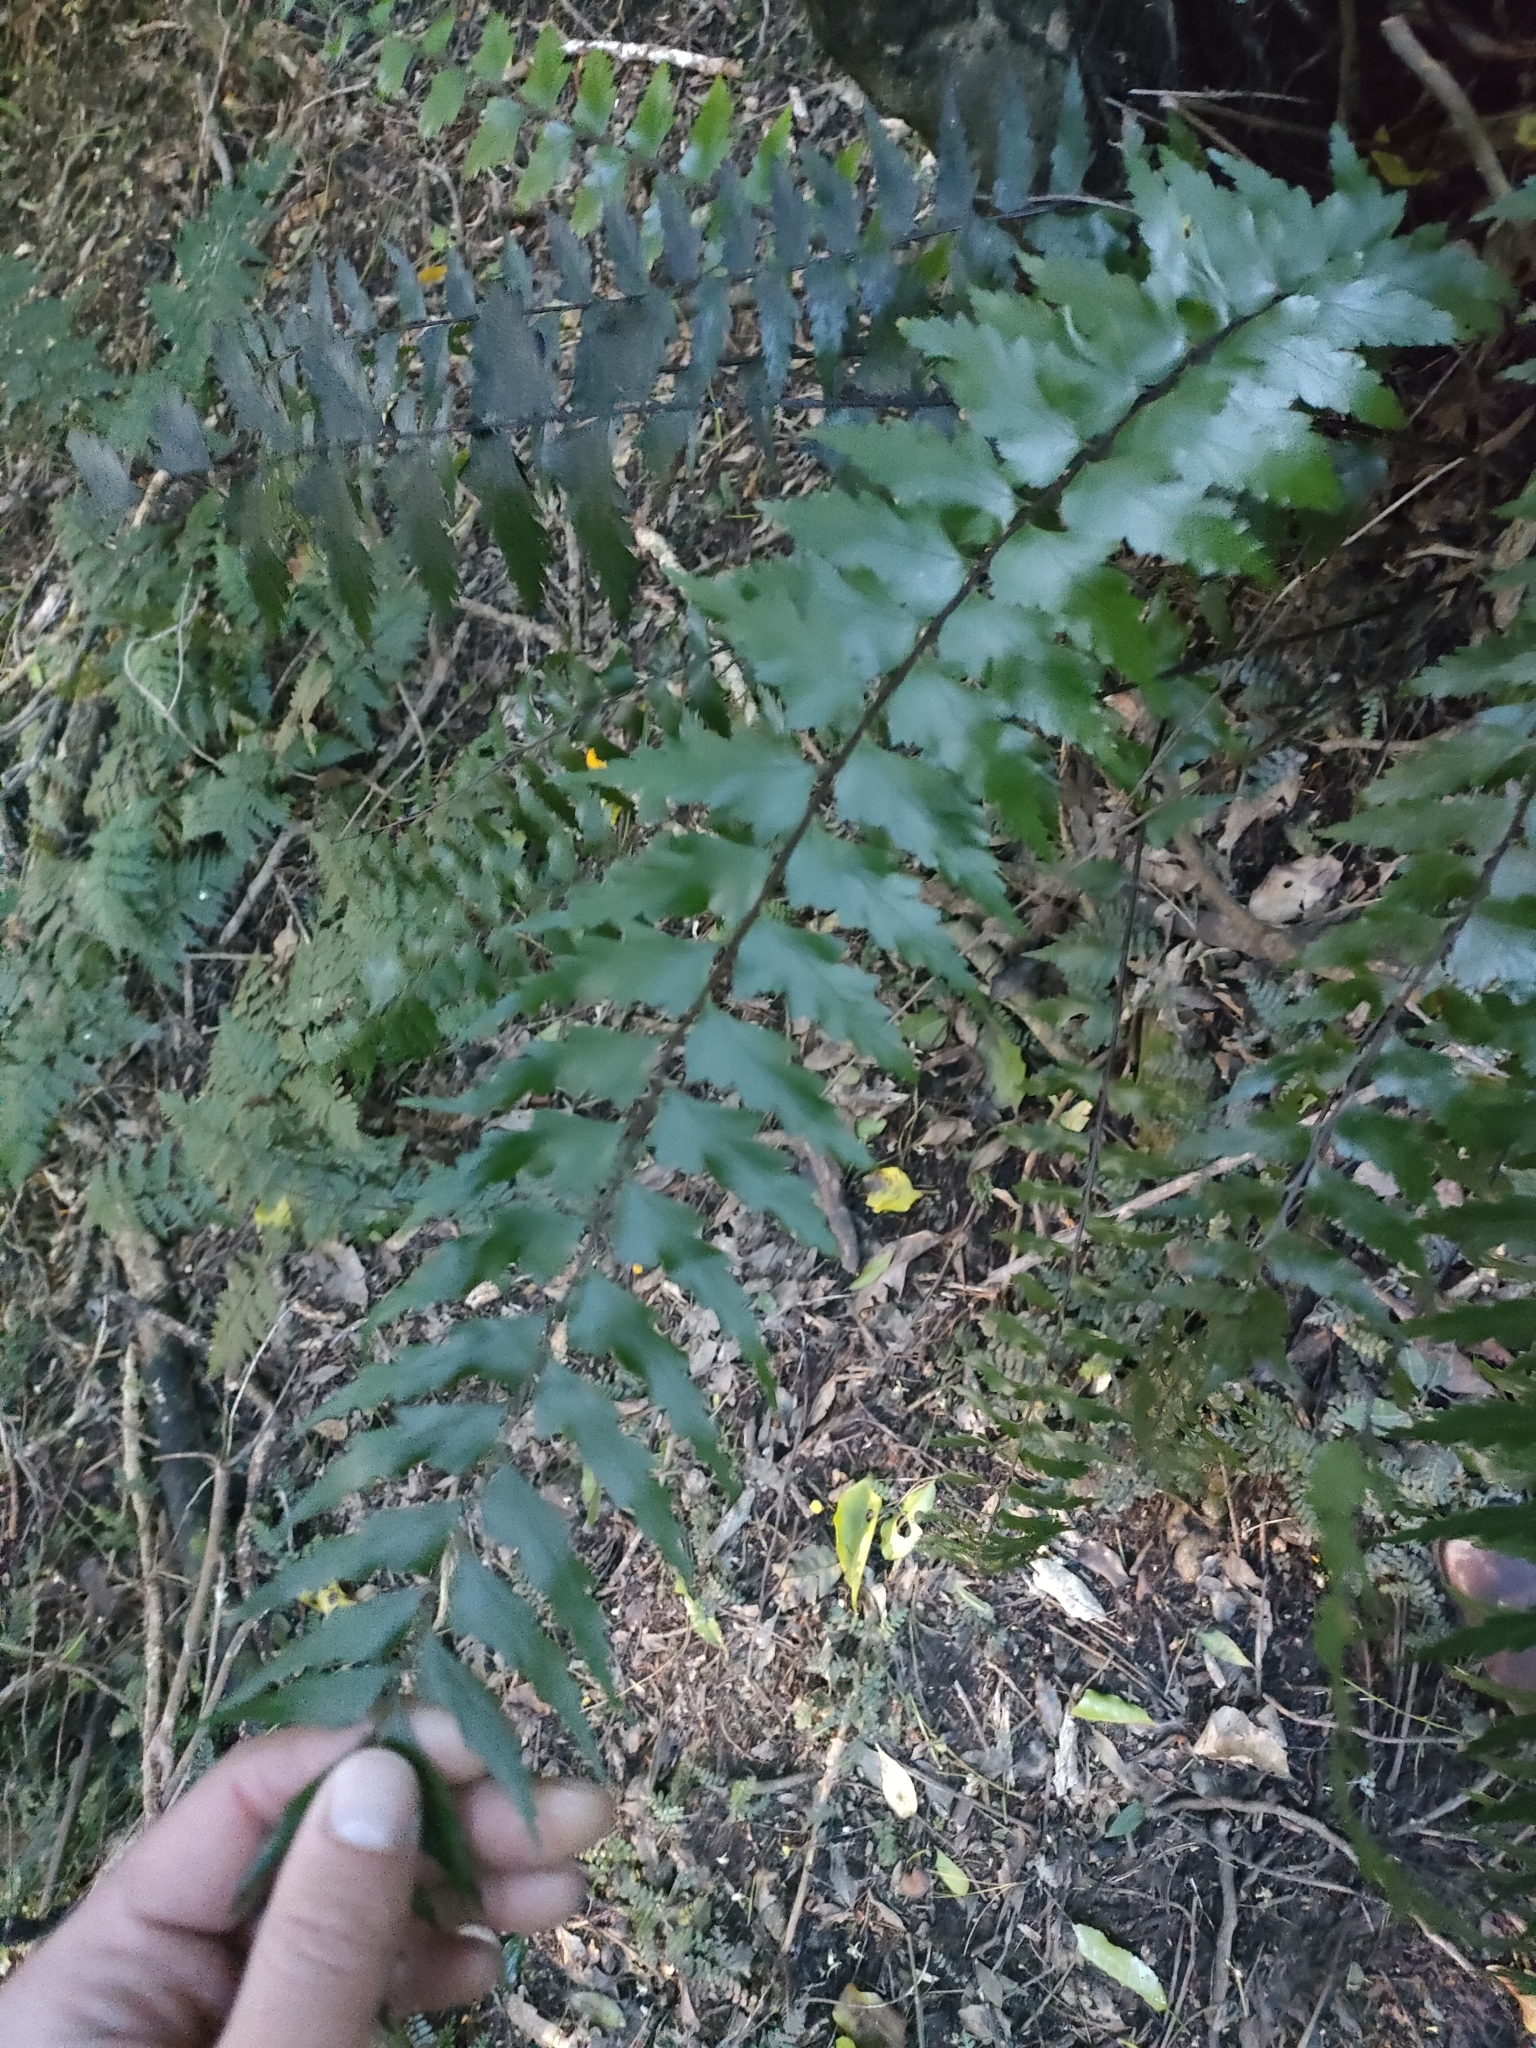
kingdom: Plantae
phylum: Tracheophyta
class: Polypodiopsida
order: Polypodiales
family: Aspleniaceae
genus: Asplenium
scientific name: Asplenium polyodon
